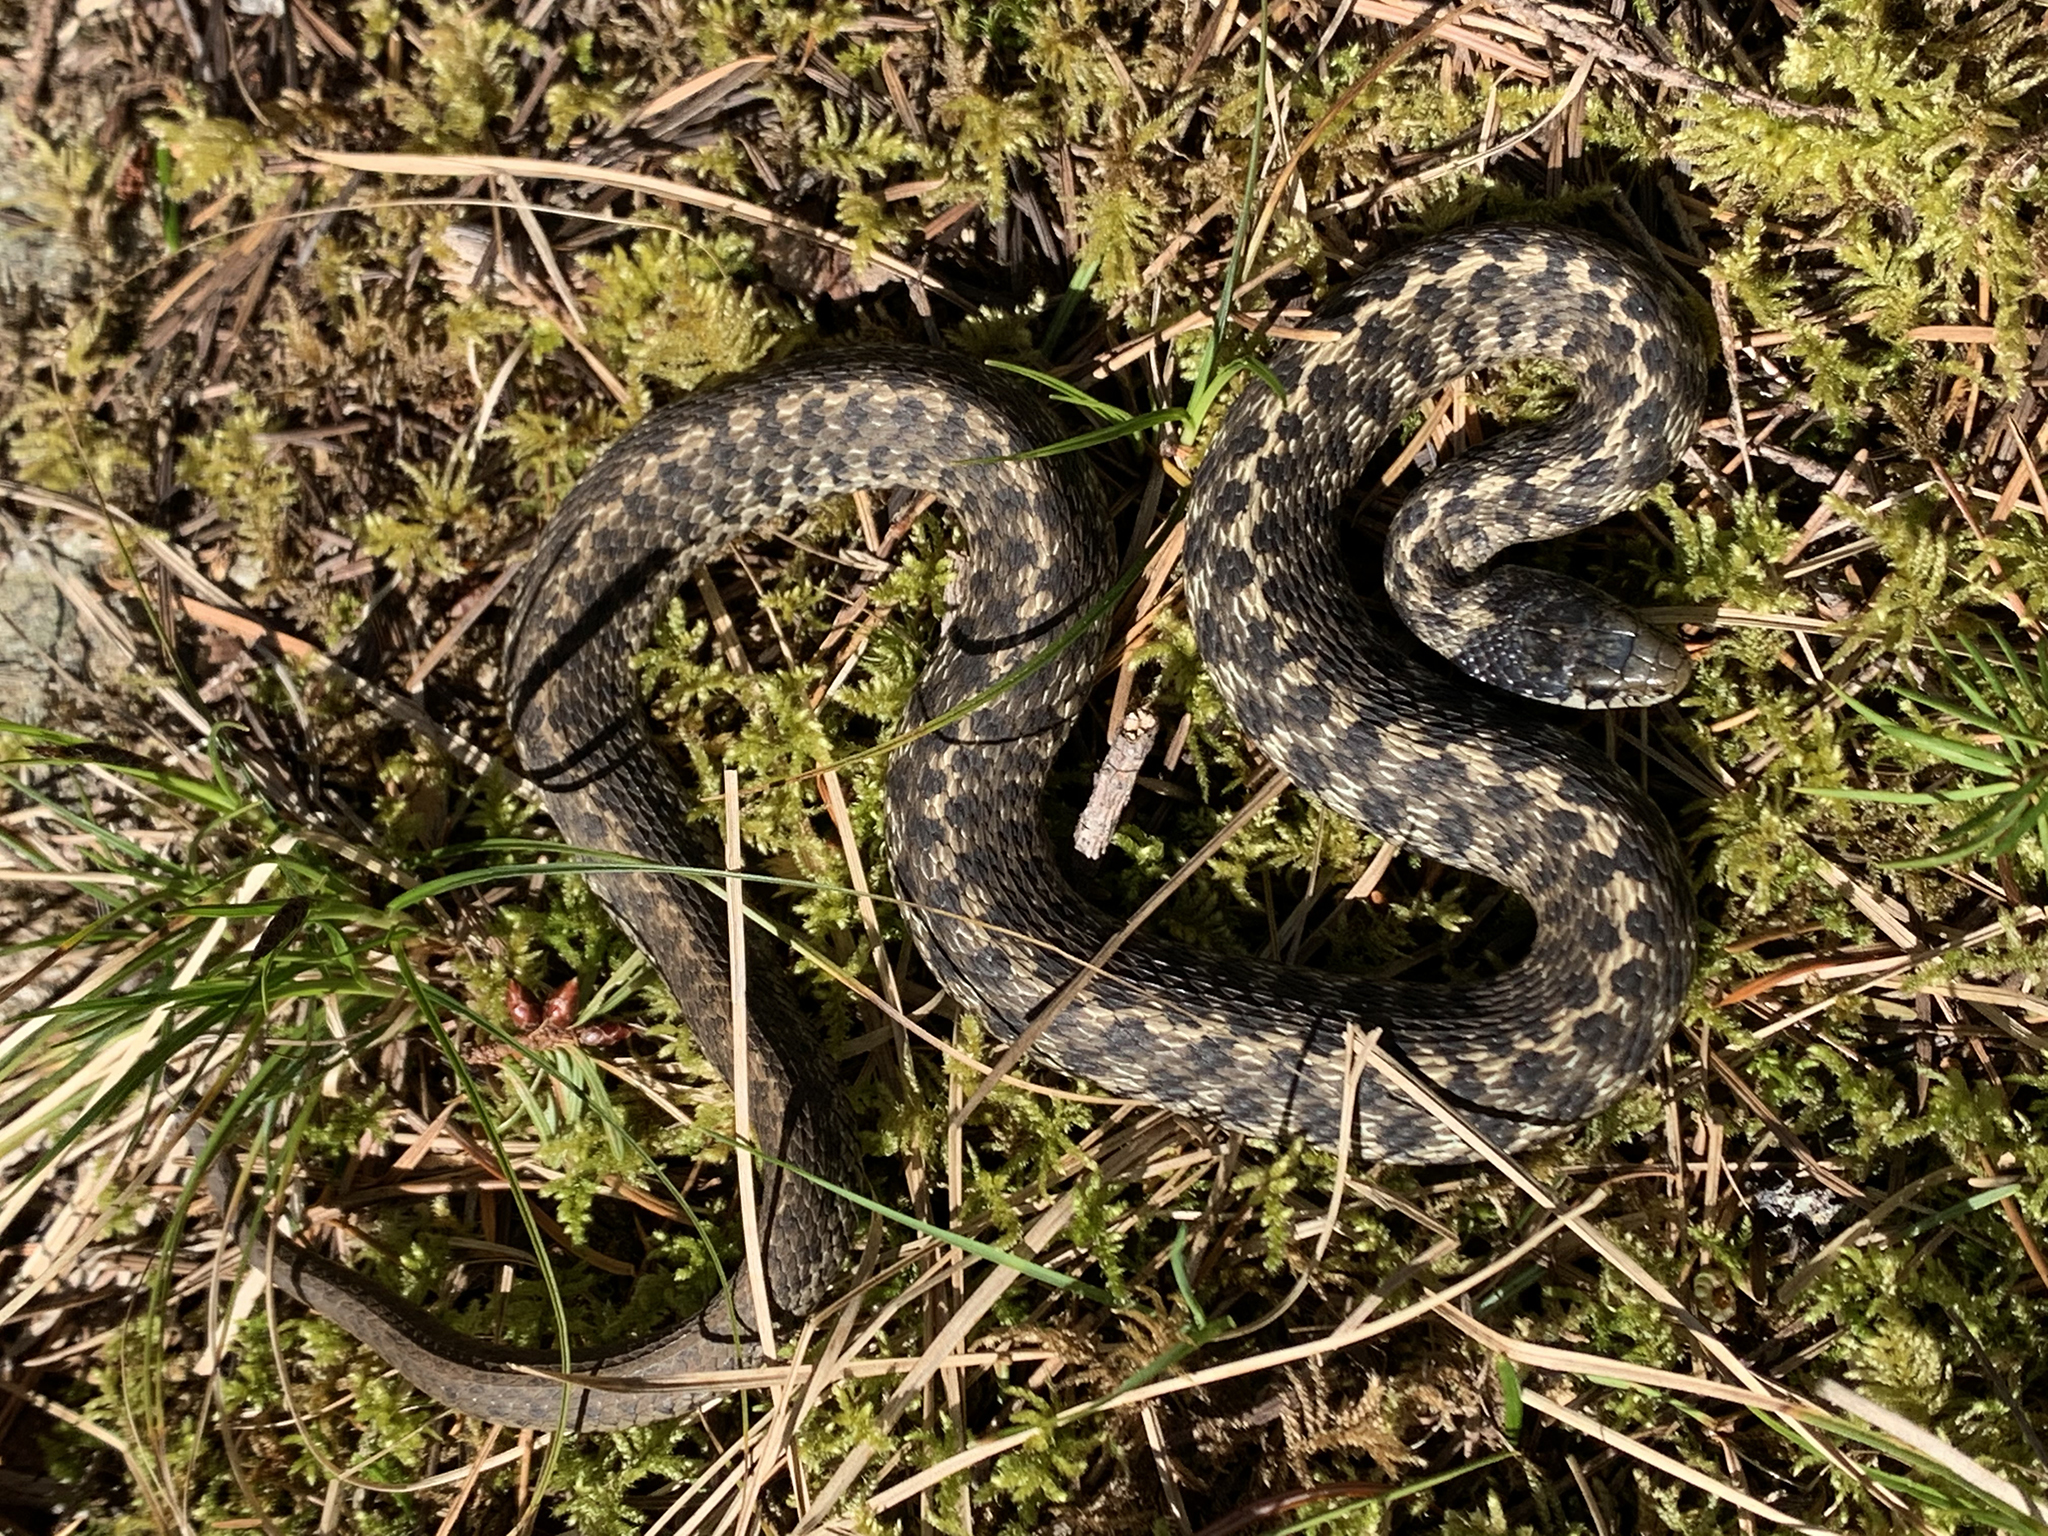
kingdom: Animalia
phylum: Chordata
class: Squamata
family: Colubridae
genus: Thamnophis
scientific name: Thamnophis elegans
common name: Western terrestrial garter snake
